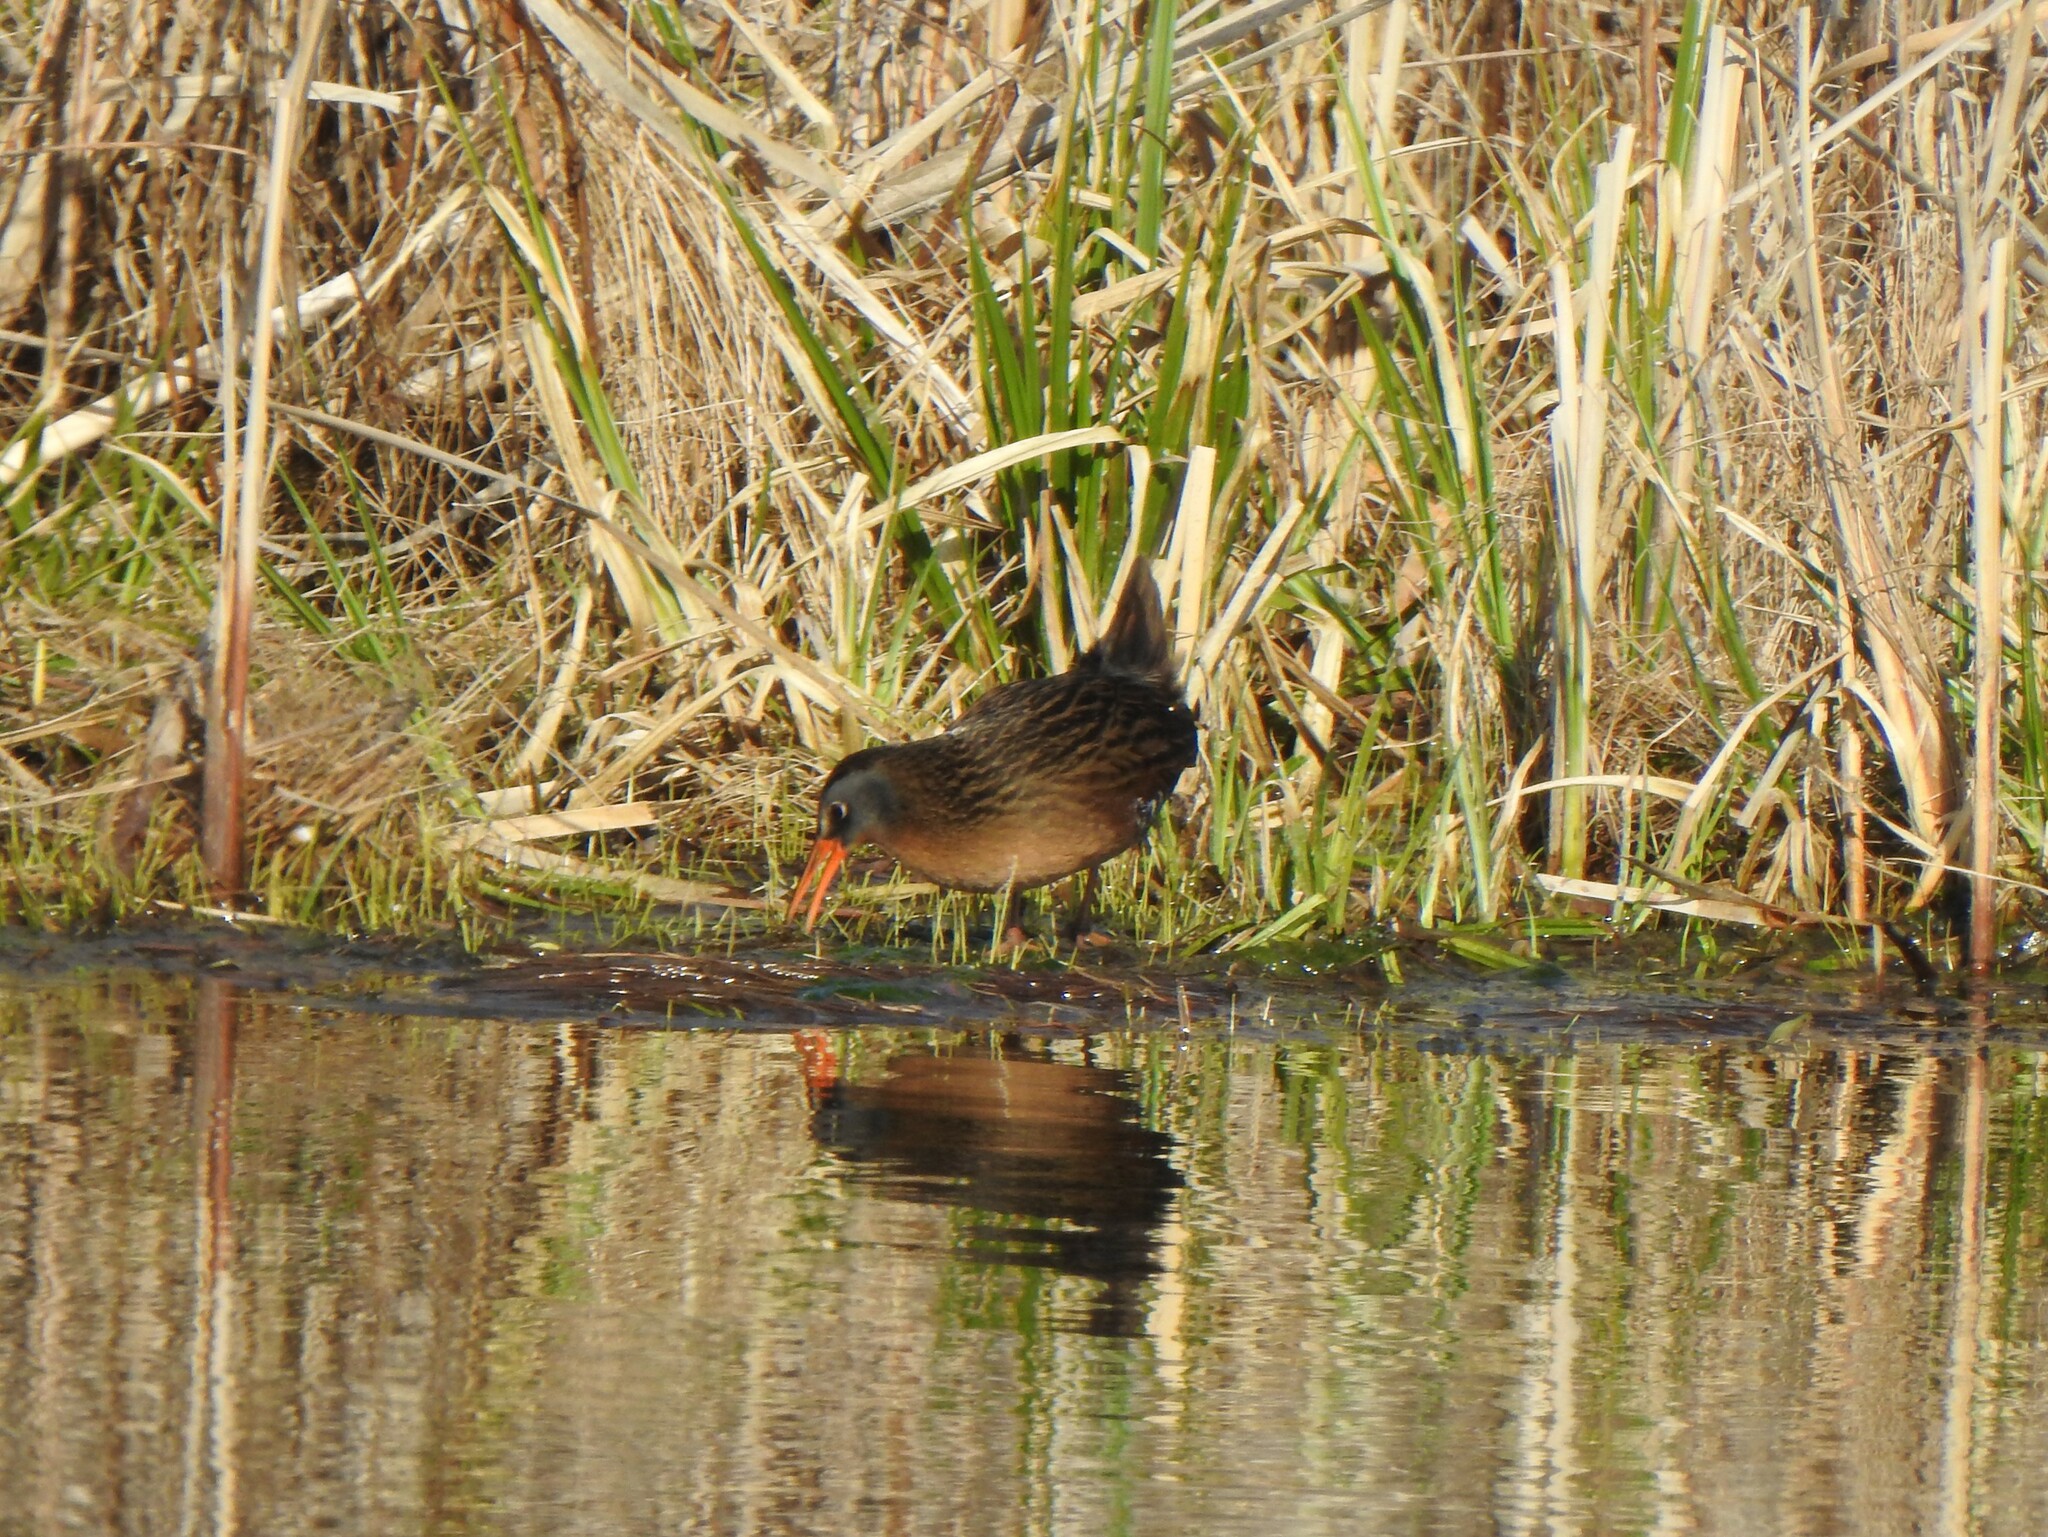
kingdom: Animalia
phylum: Chordata
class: Aves
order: Gruiformes
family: Rallidae
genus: Rallus
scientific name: Rallus limicola
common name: Virginia rail
